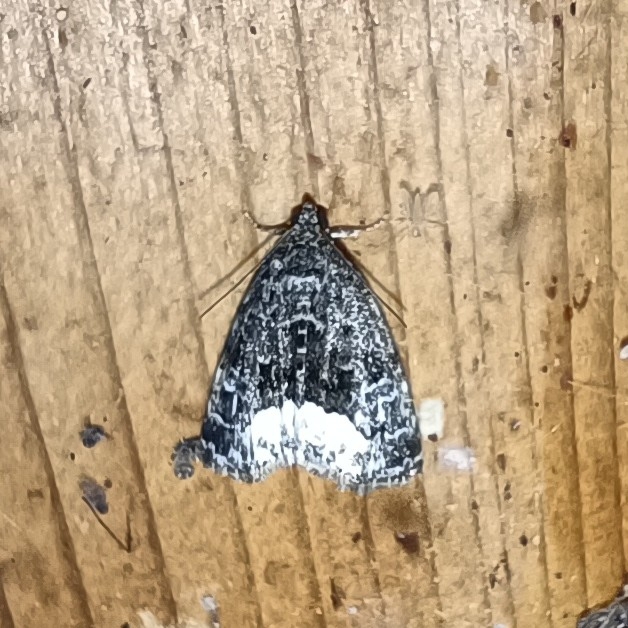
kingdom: Animalia
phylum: Arthropoda
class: Insecta
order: Lepidoptera
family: Noctuidae
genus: Deltote
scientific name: Deltote pygarga
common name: Marbled white spot
